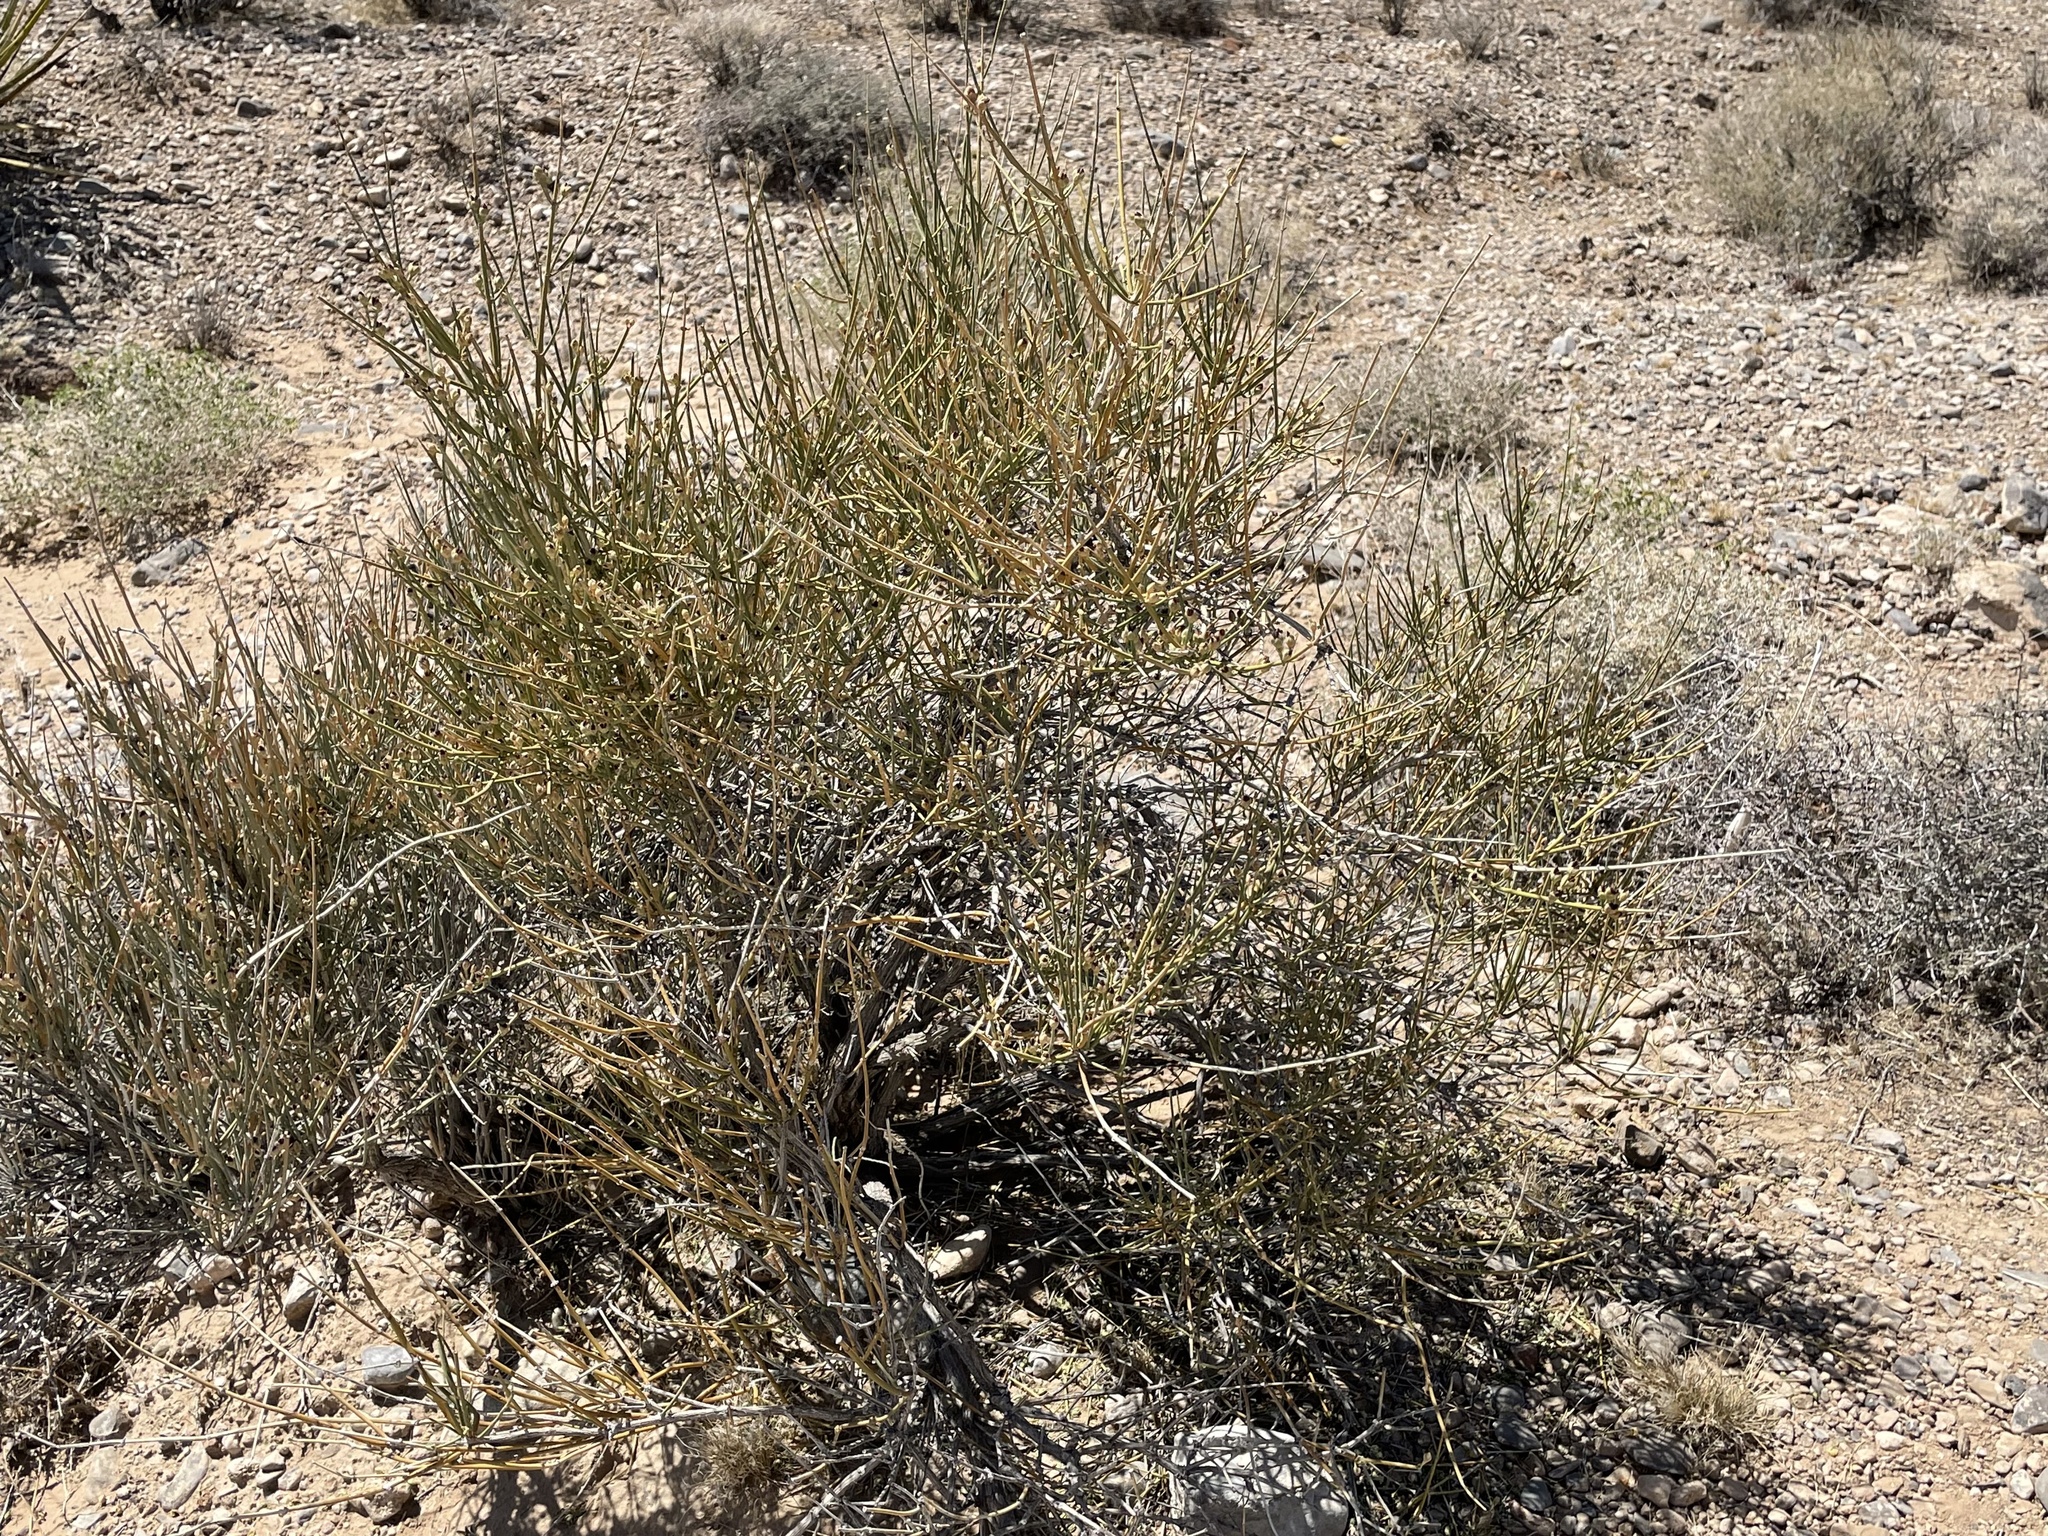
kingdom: Plantae
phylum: Tracheophyta
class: Gnetopsida
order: Ephedrales
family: Ephedraceae
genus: Ephedra
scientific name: Ephedra nevadensis
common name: Gray ephedra
